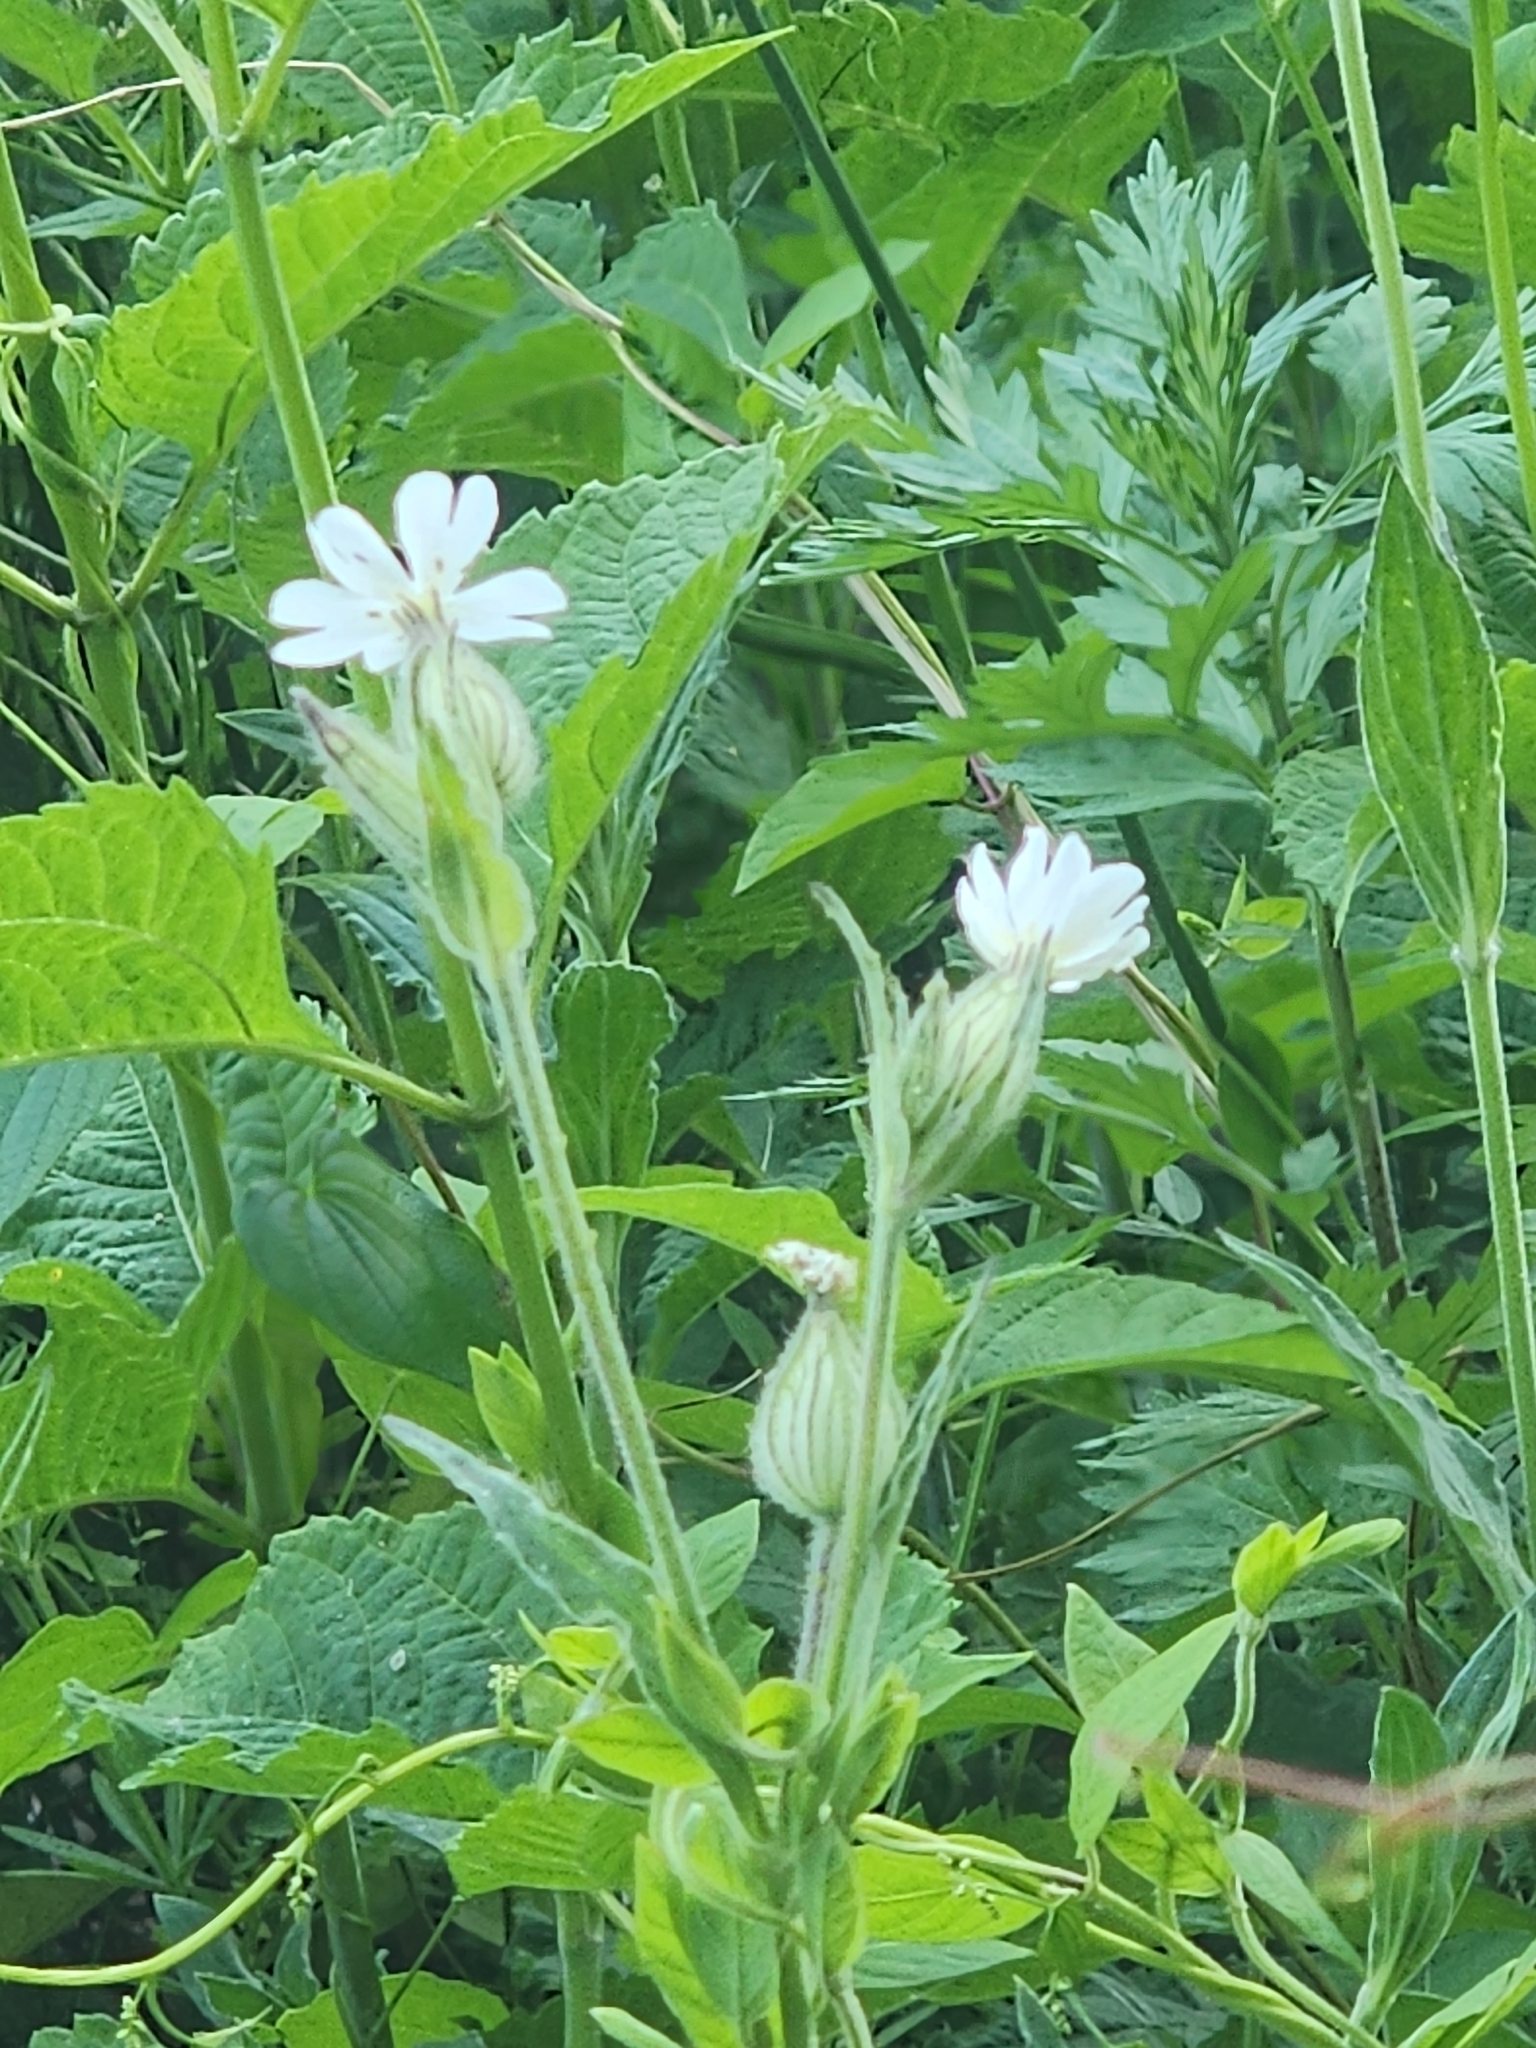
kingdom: Plantae
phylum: Tracheophyta
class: Magnoliopsida
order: Caryophyllales
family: Caryophyllaceae
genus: Silene
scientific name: Silene latifolia
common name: White campion
